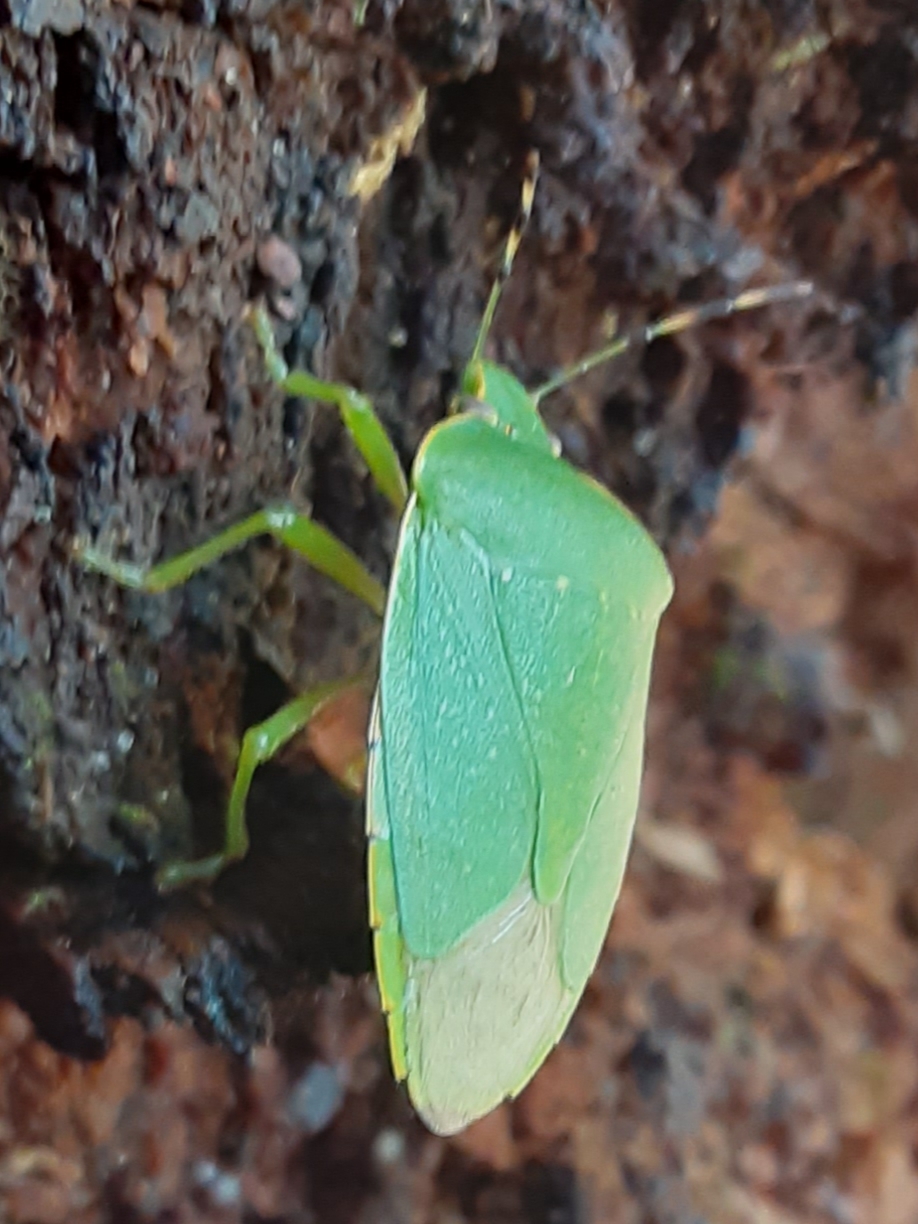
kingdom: Animalia
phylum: Arthropoda
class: Insecta
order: Hemiptera
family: Pentatomidae
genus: Chinavia
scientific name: Chinavia hilaris
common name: Green stink bug
